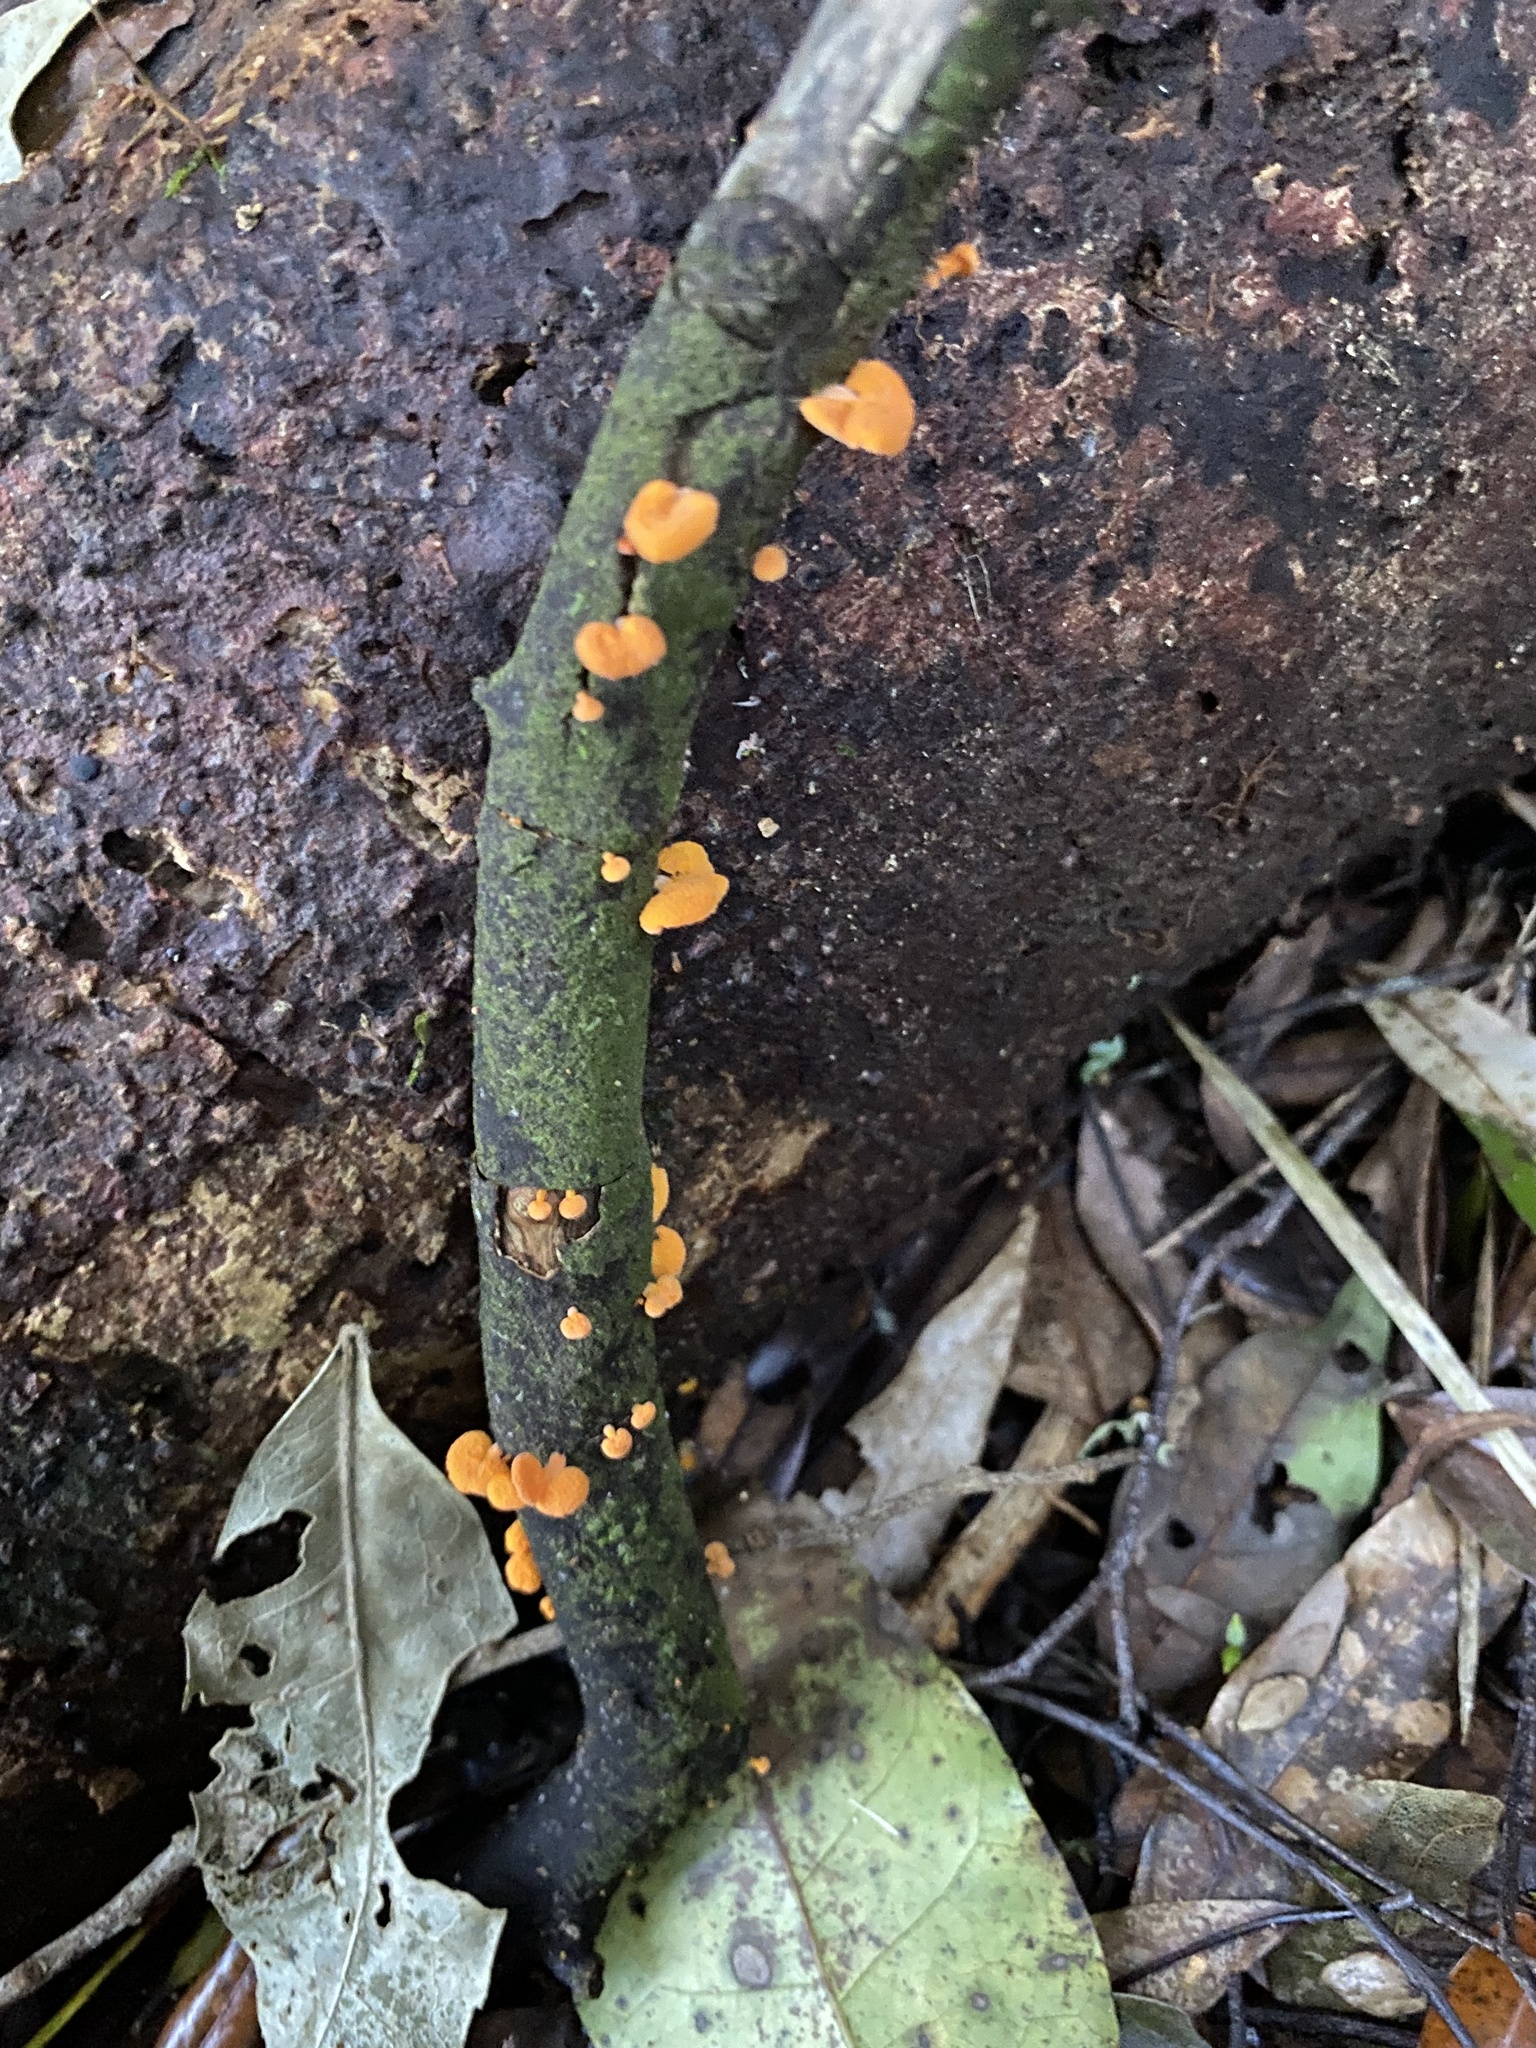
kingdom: Fungi
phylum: Basidiomycota
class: Agaricomycetes
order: Agaricales
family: Mycenaceae
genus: Favolaschia
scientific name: Favolaschia claudopus
